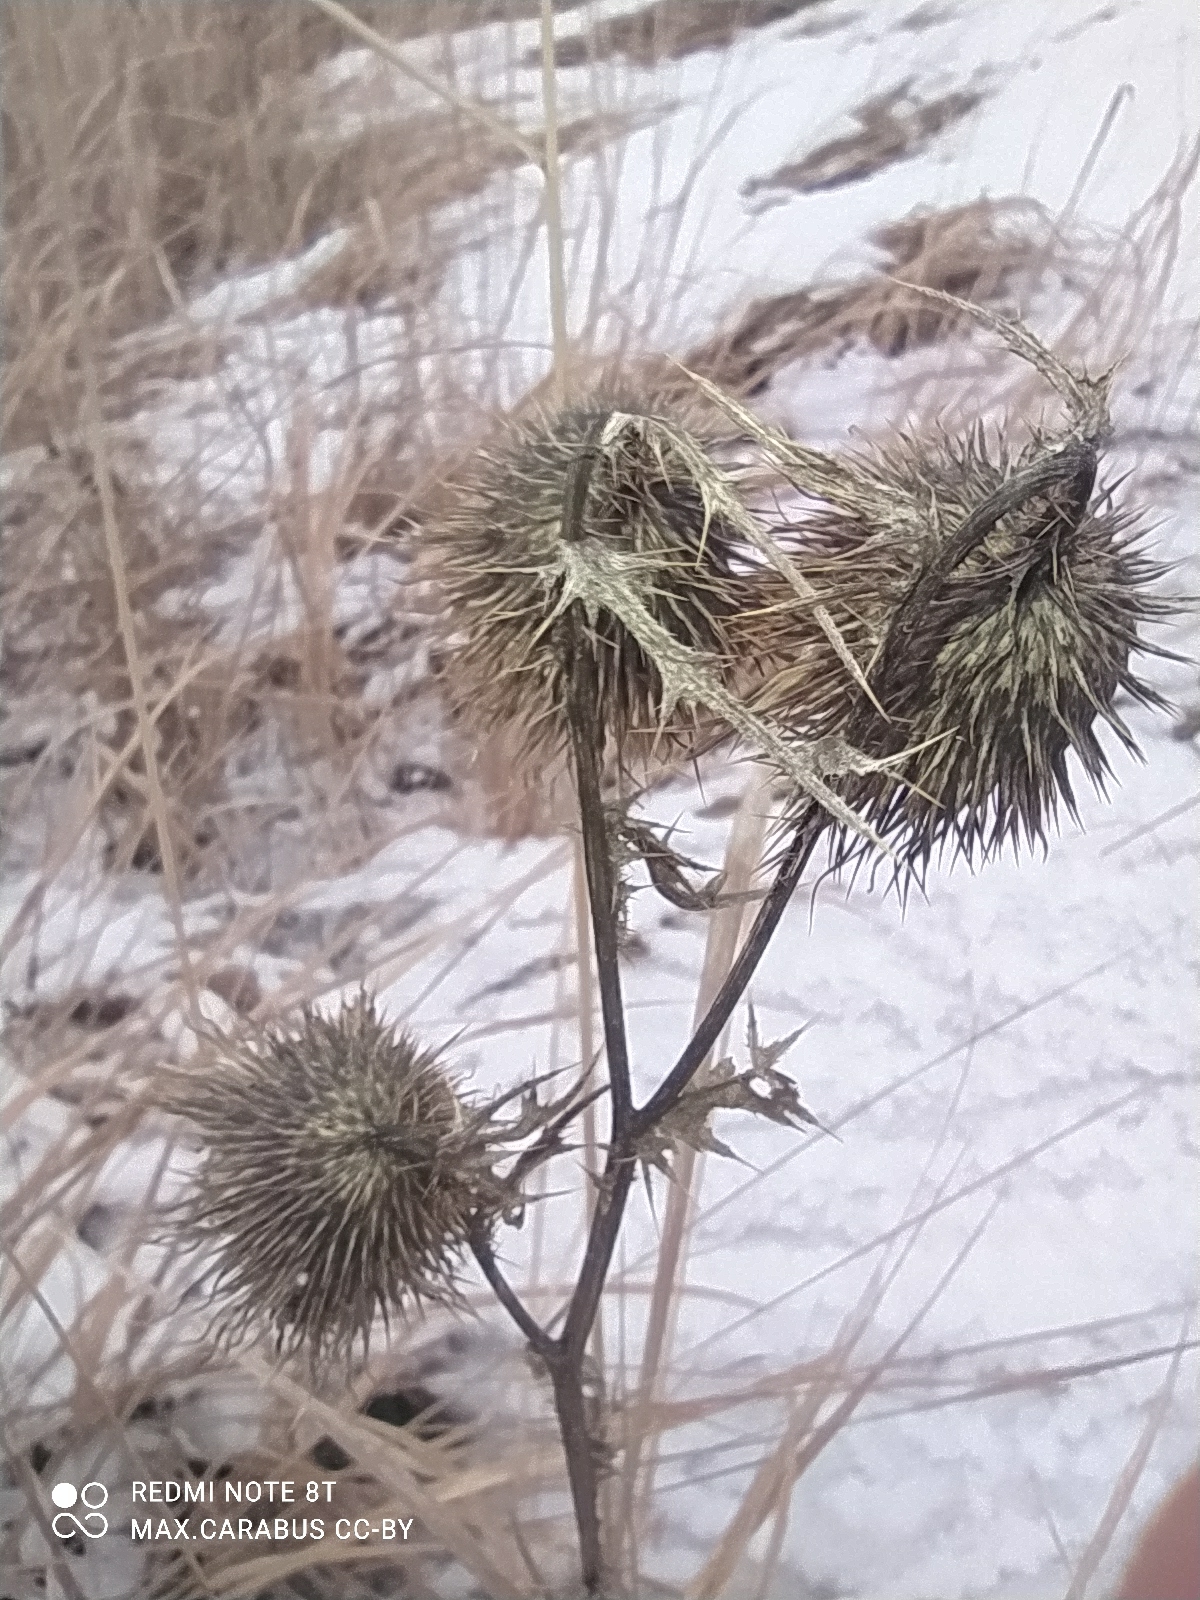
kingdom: Plantae
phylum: Tracheophyta
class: Magnoliopsida
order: Asterales
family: Asteraceae
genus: Cirsium
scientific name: Cirsium vulgare
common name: Bull thistle
